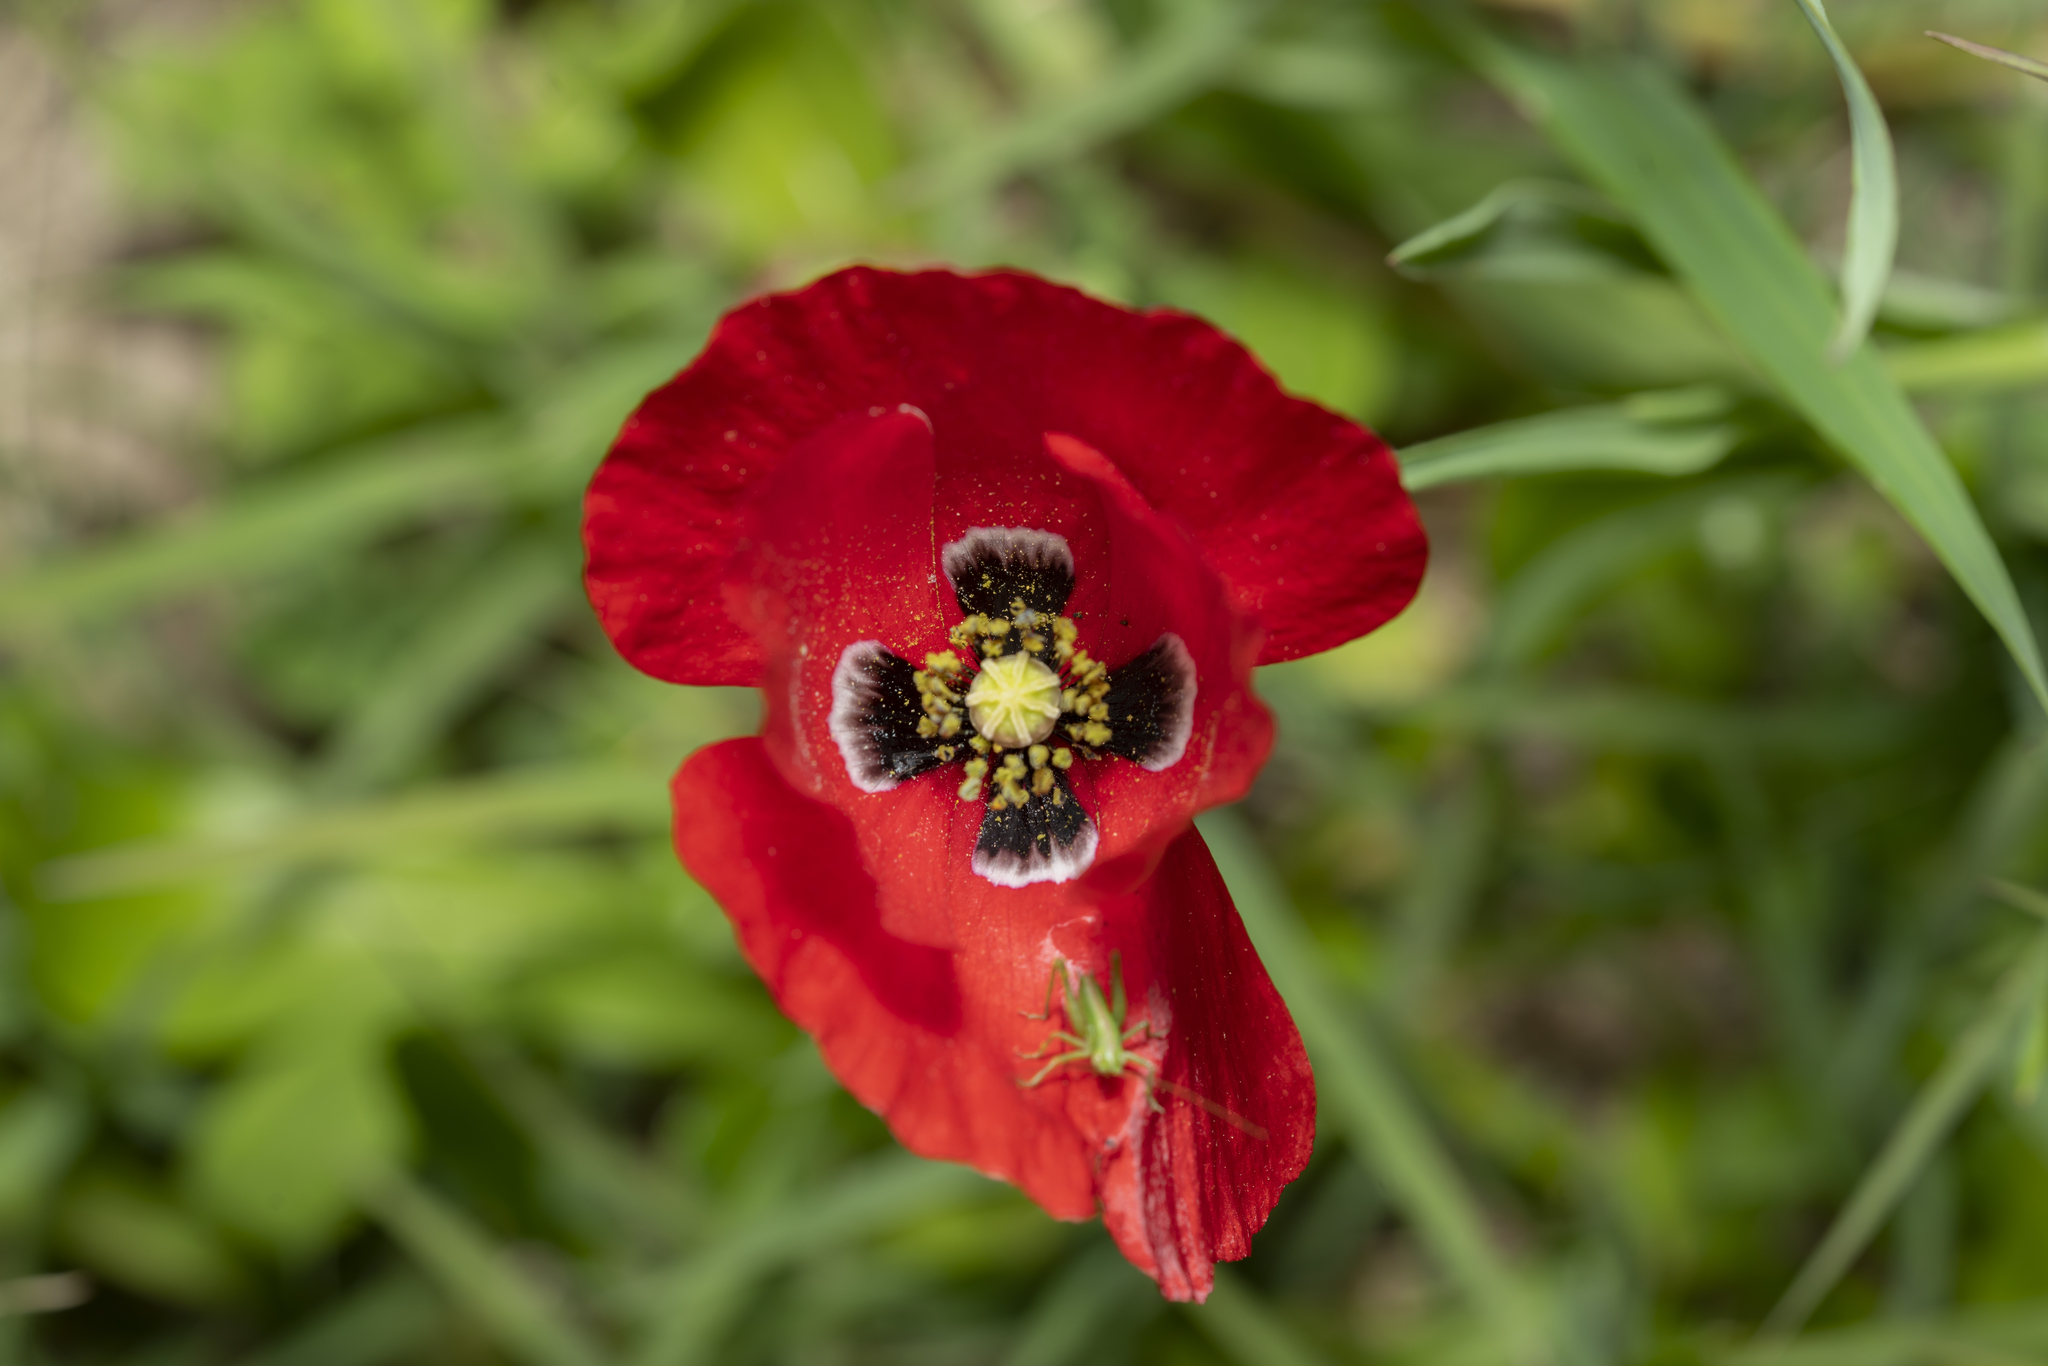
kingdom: Plantae
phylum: Tracheophyta
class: Magnoliopsida
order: Ranunculales
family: Papaveraceae
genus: Papaver
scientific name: Papaver rhoeas
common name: Corn poppy
